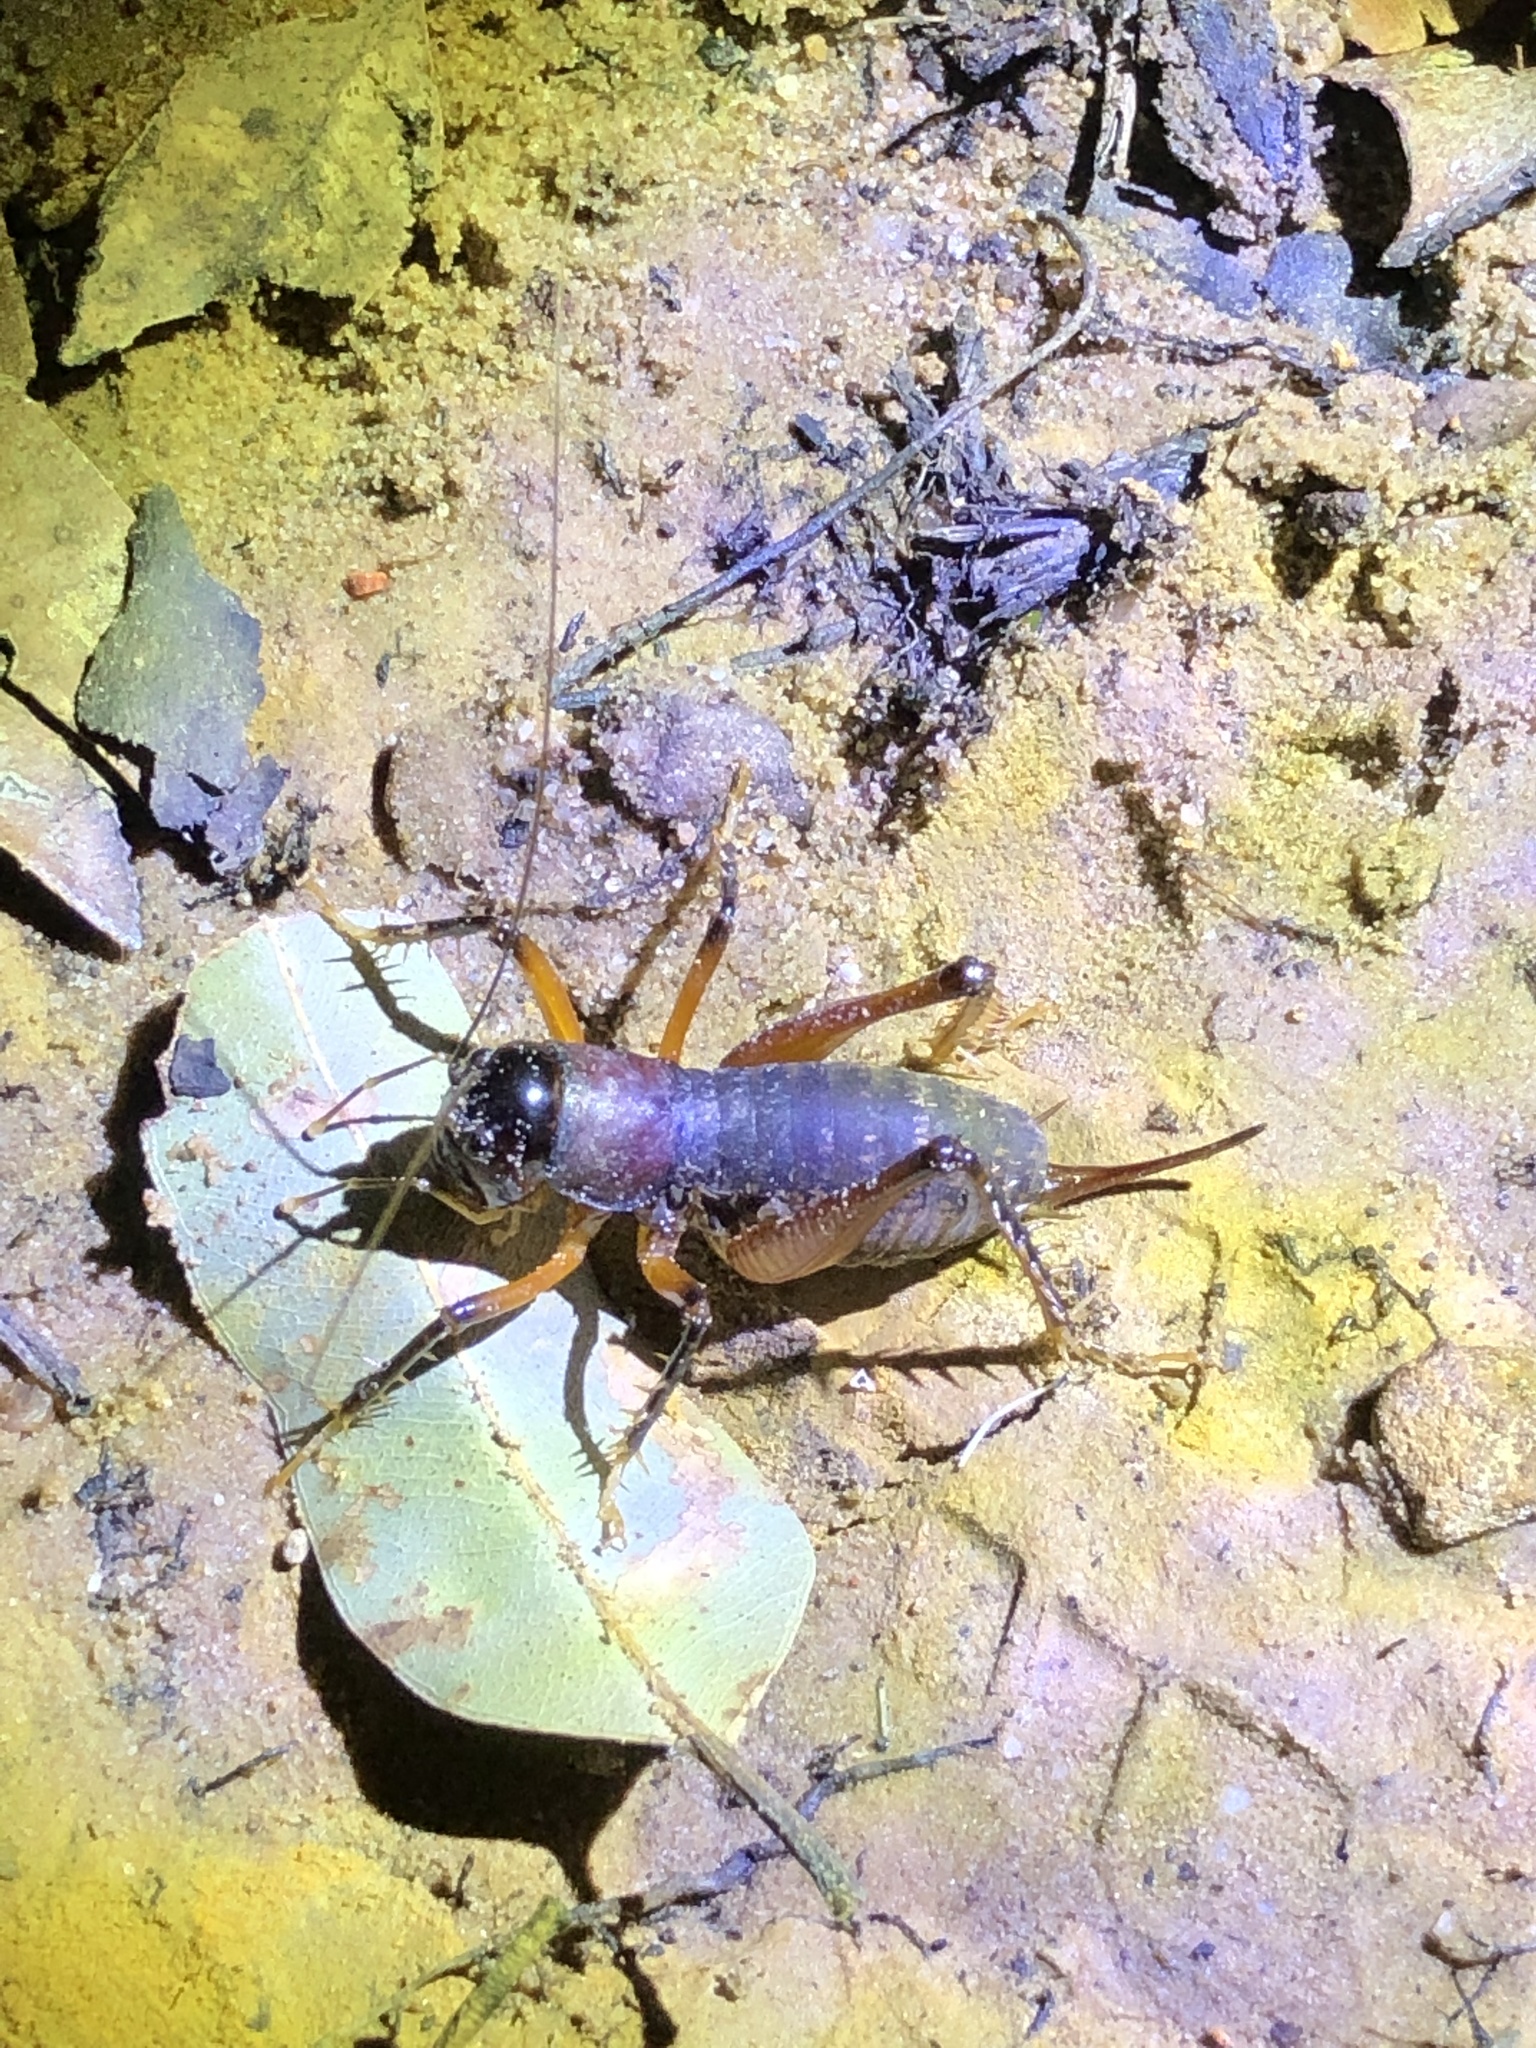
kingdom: Animalia
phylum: Arthropoda
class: Insecta
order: Orthoptera
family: Anostostomatidae
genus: Anostostoma
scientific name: Anostostoma opacum
